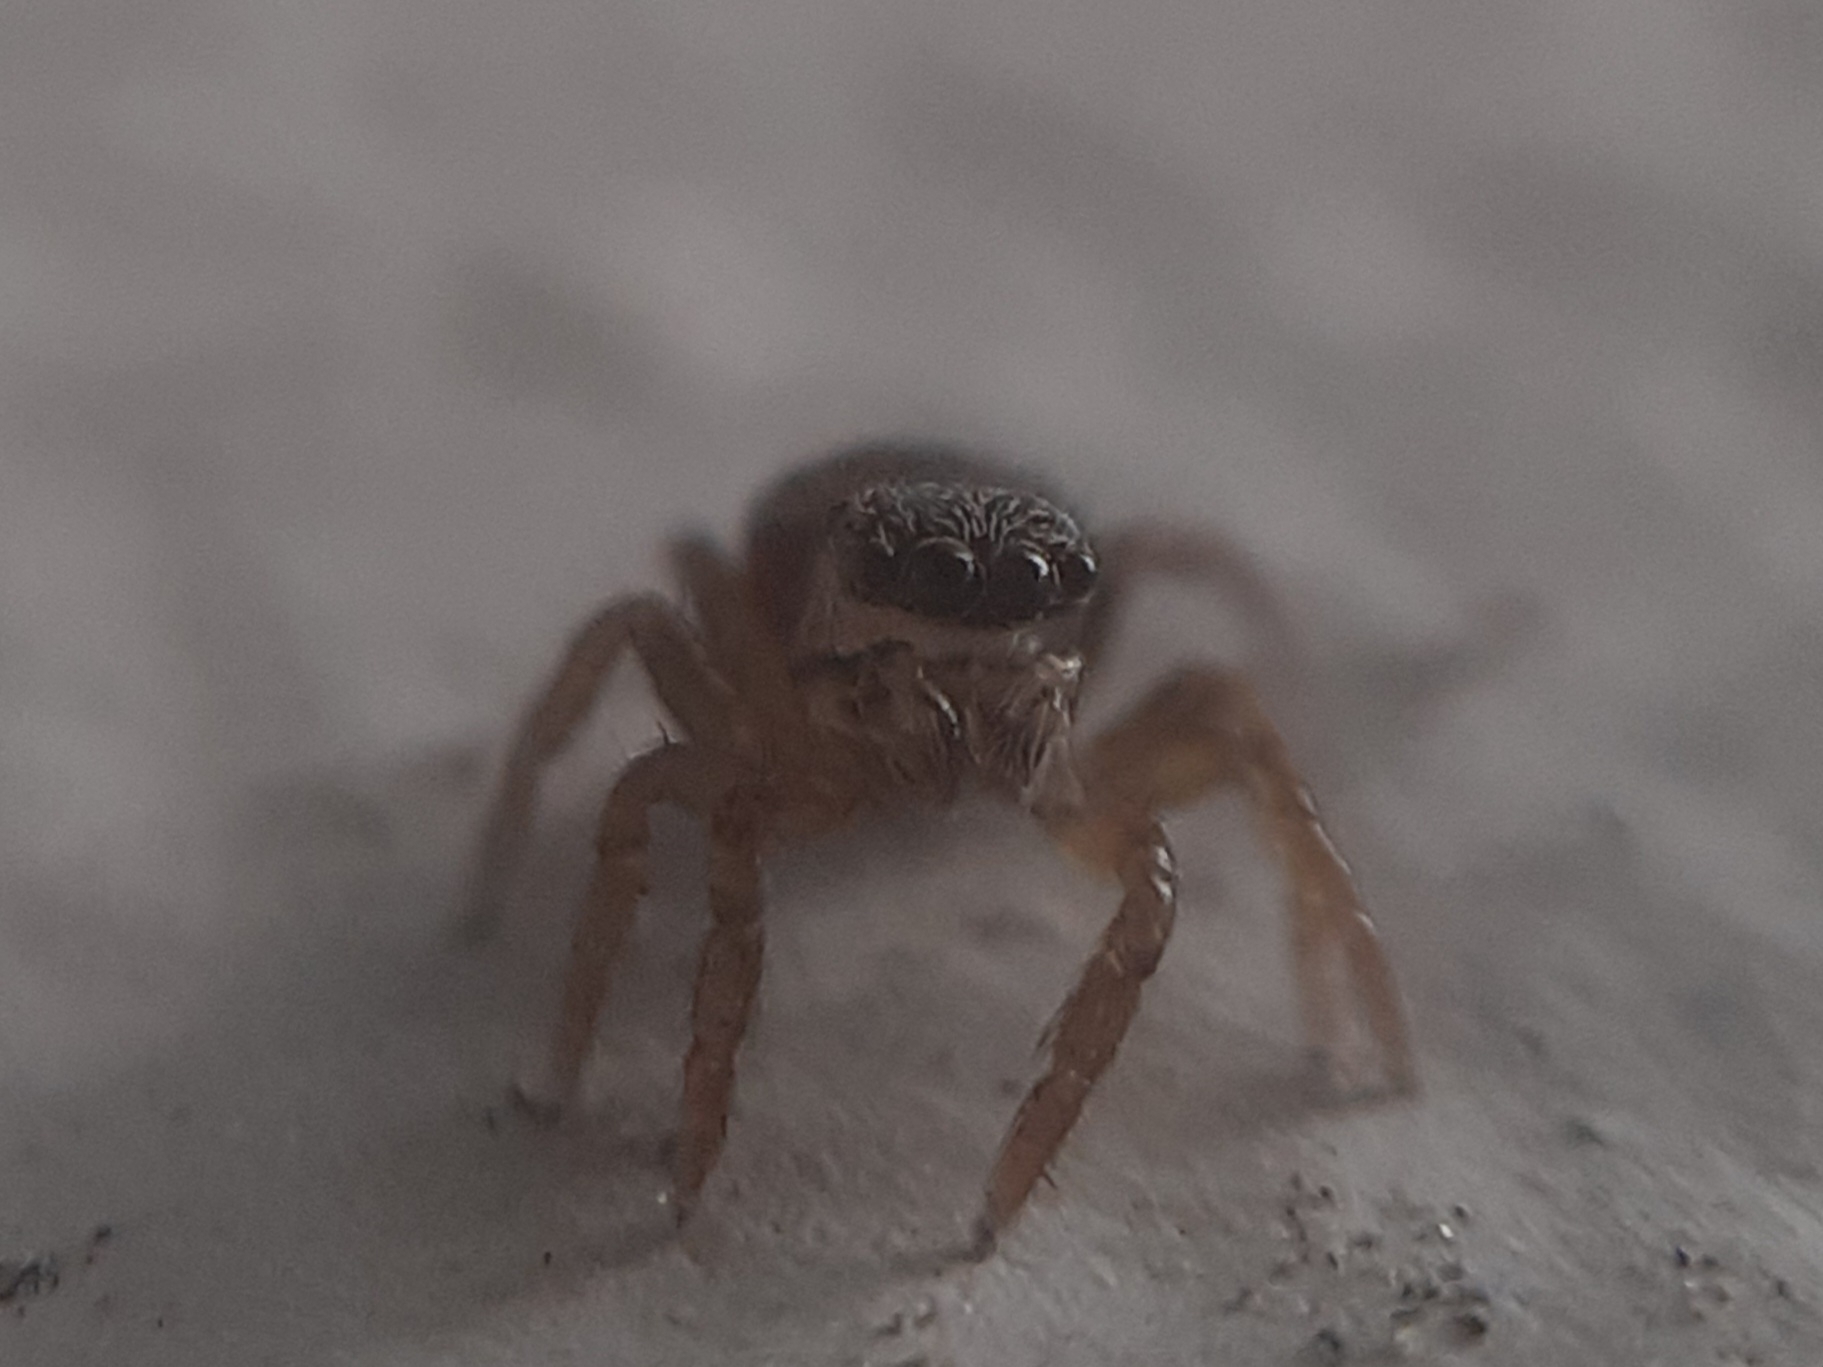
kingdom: Animalia
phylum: Arthropoda
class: Arachnida
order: Araneae
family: Salticidae
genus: Euophrys
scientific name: Euophrys frontalis
